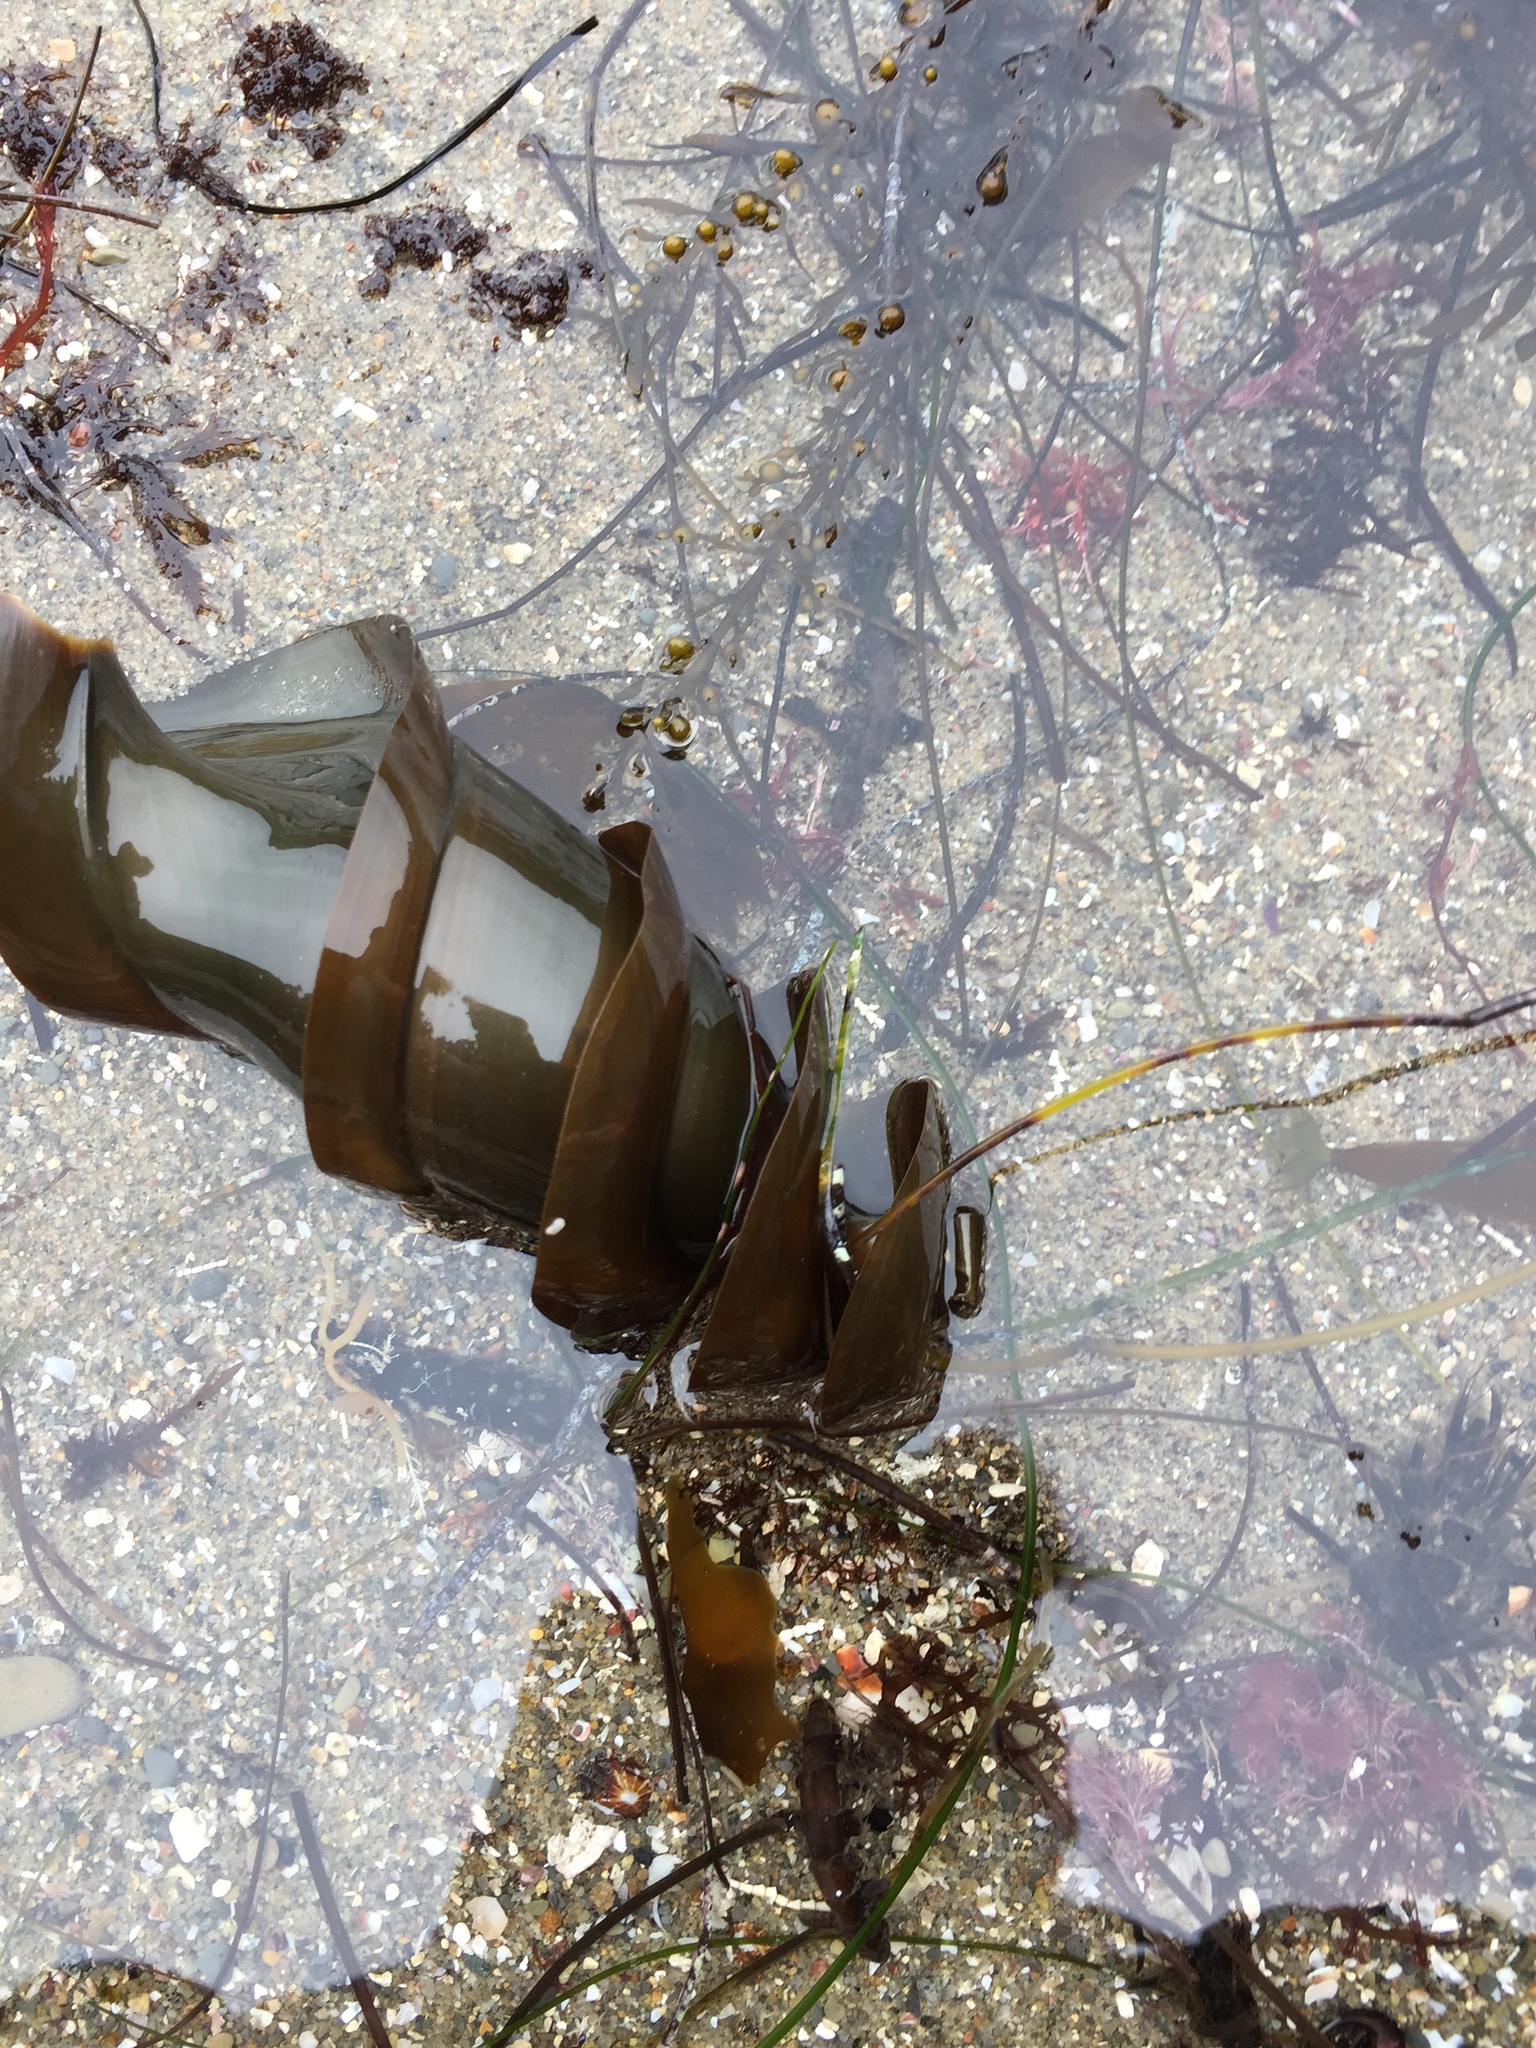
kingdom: Animalia
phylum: Chordata
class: Elasmobranchii
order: Heterodontiformes
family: Heterodontidae
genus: Heterodontus
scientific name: Heterodontus francisci
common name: Horn shark
